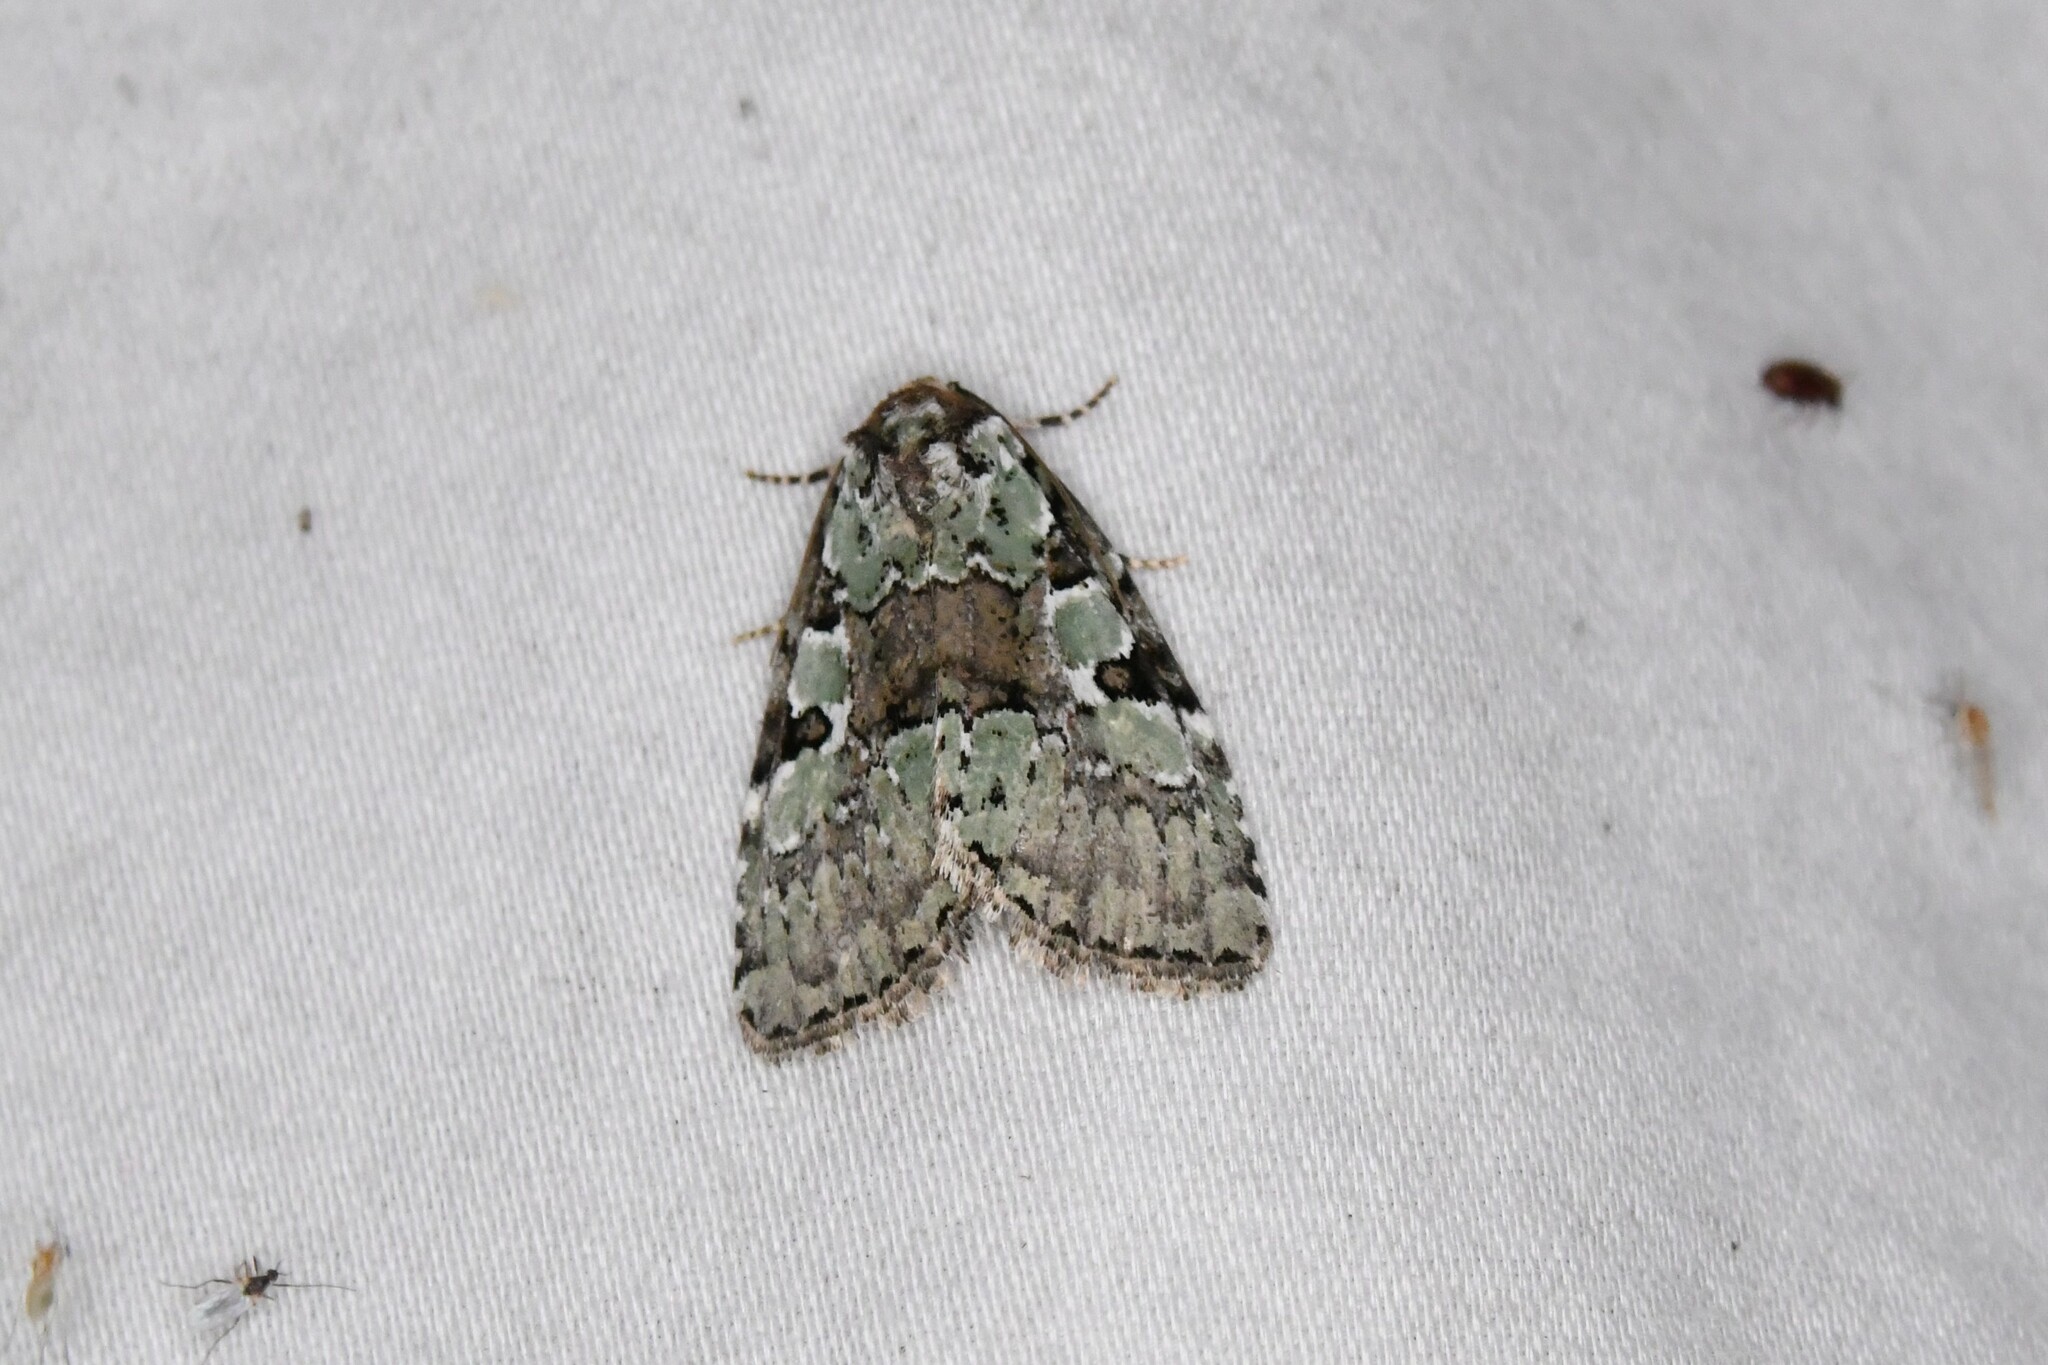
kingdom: Animalia
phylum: Arthropoda
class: Insecta
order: Lepidoptera
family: Noctuidae
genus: Leuconycta
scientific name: Leuconycta lepidula
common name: Marbled-green leuconycta moth
